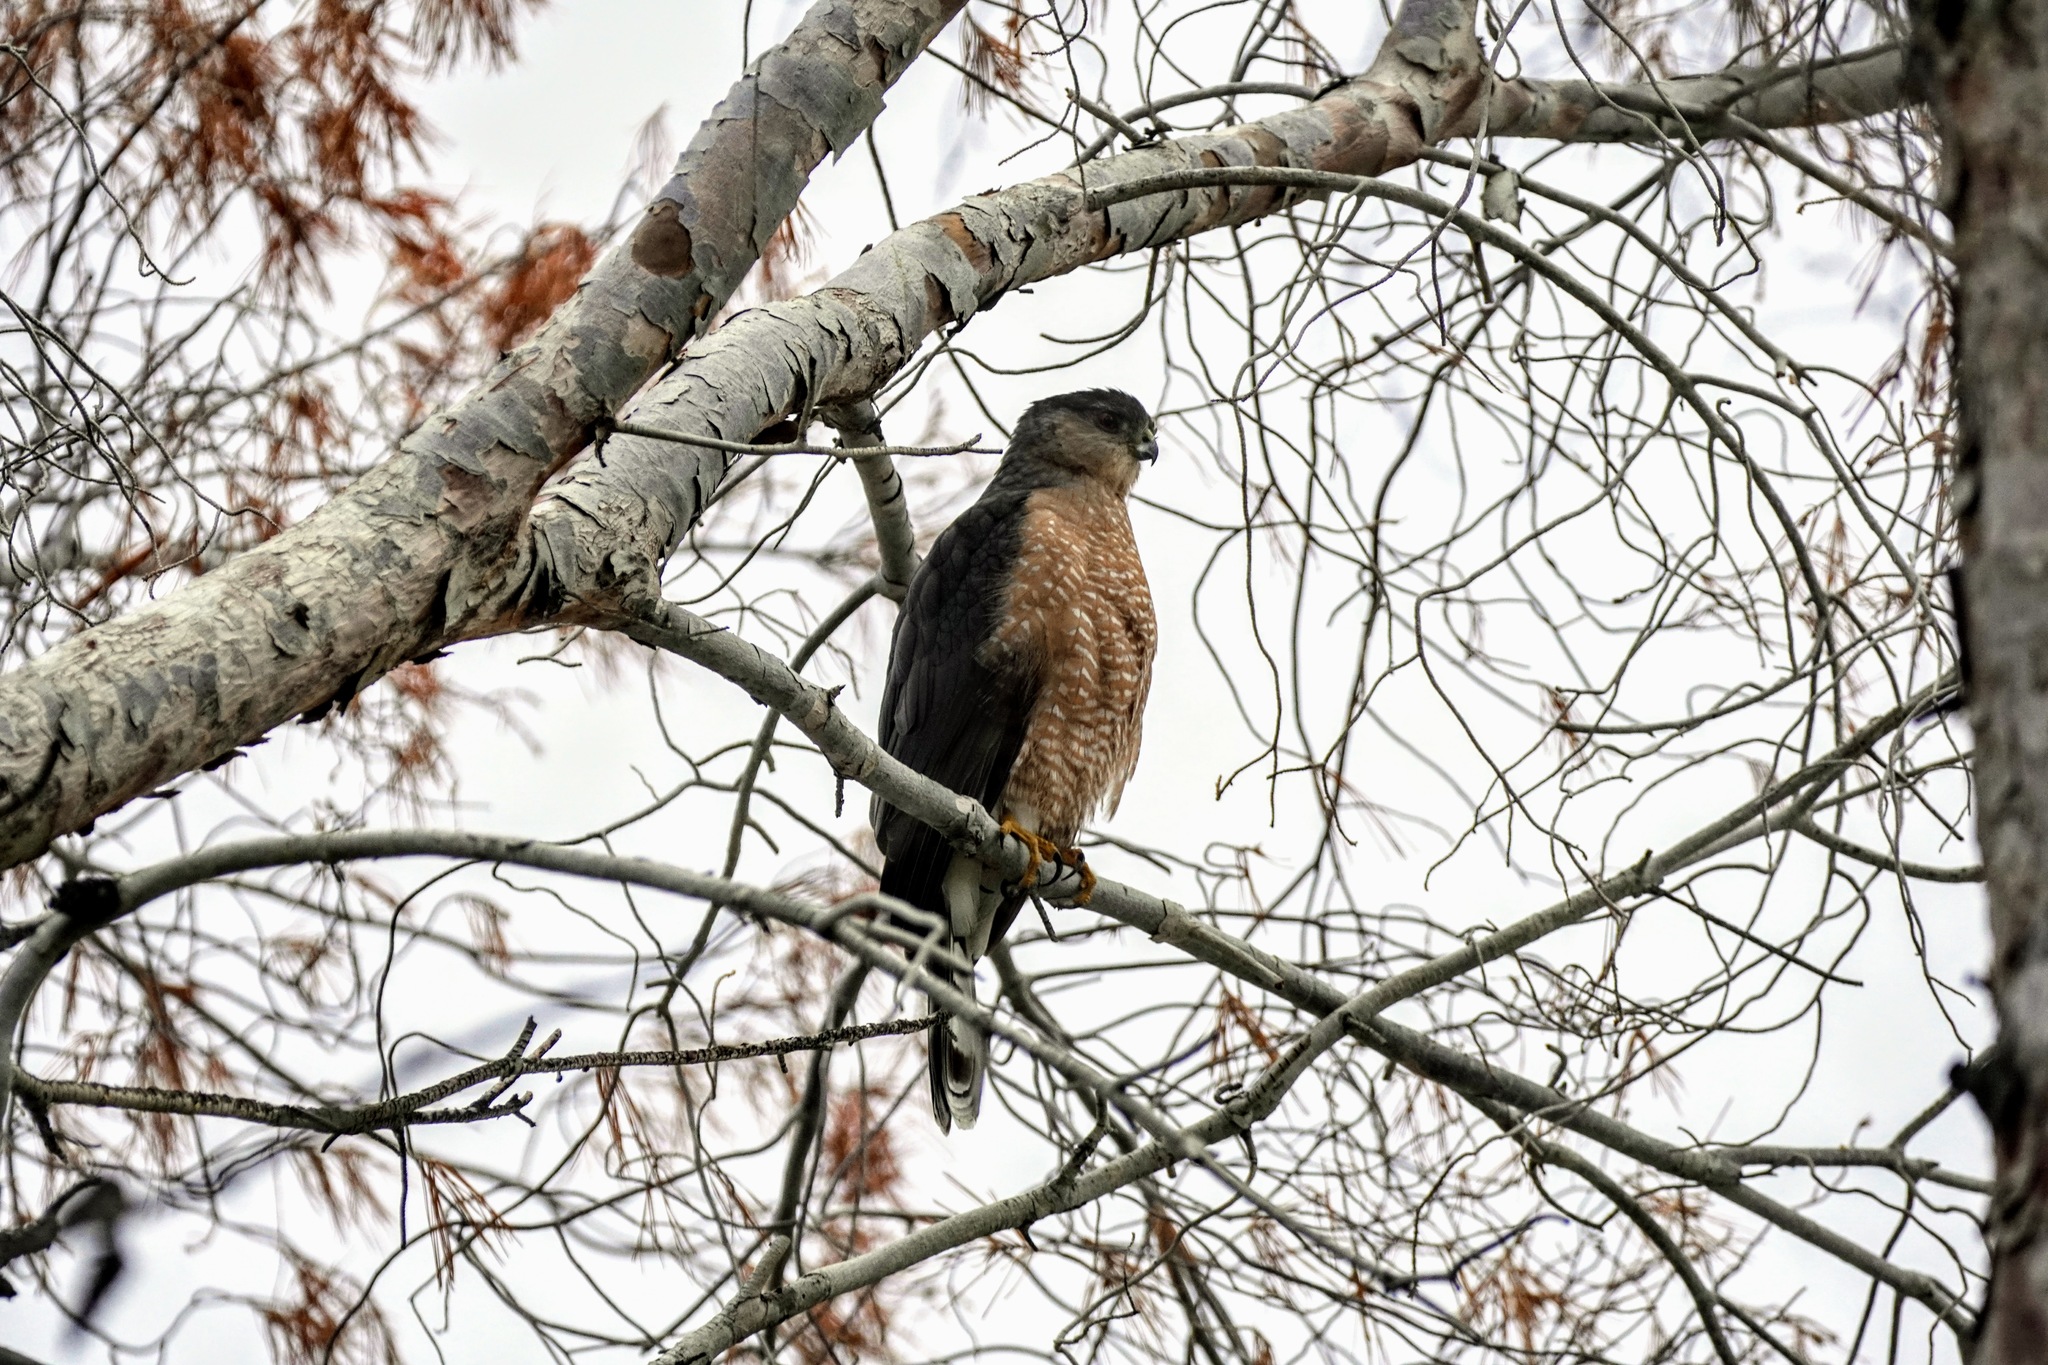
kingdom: Animalia
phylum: Chordata
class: Aves
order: Accipitriformes
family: Accipitridae
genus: Accipiter
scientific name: Accipiter cooperii
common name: Cooper's hawk
